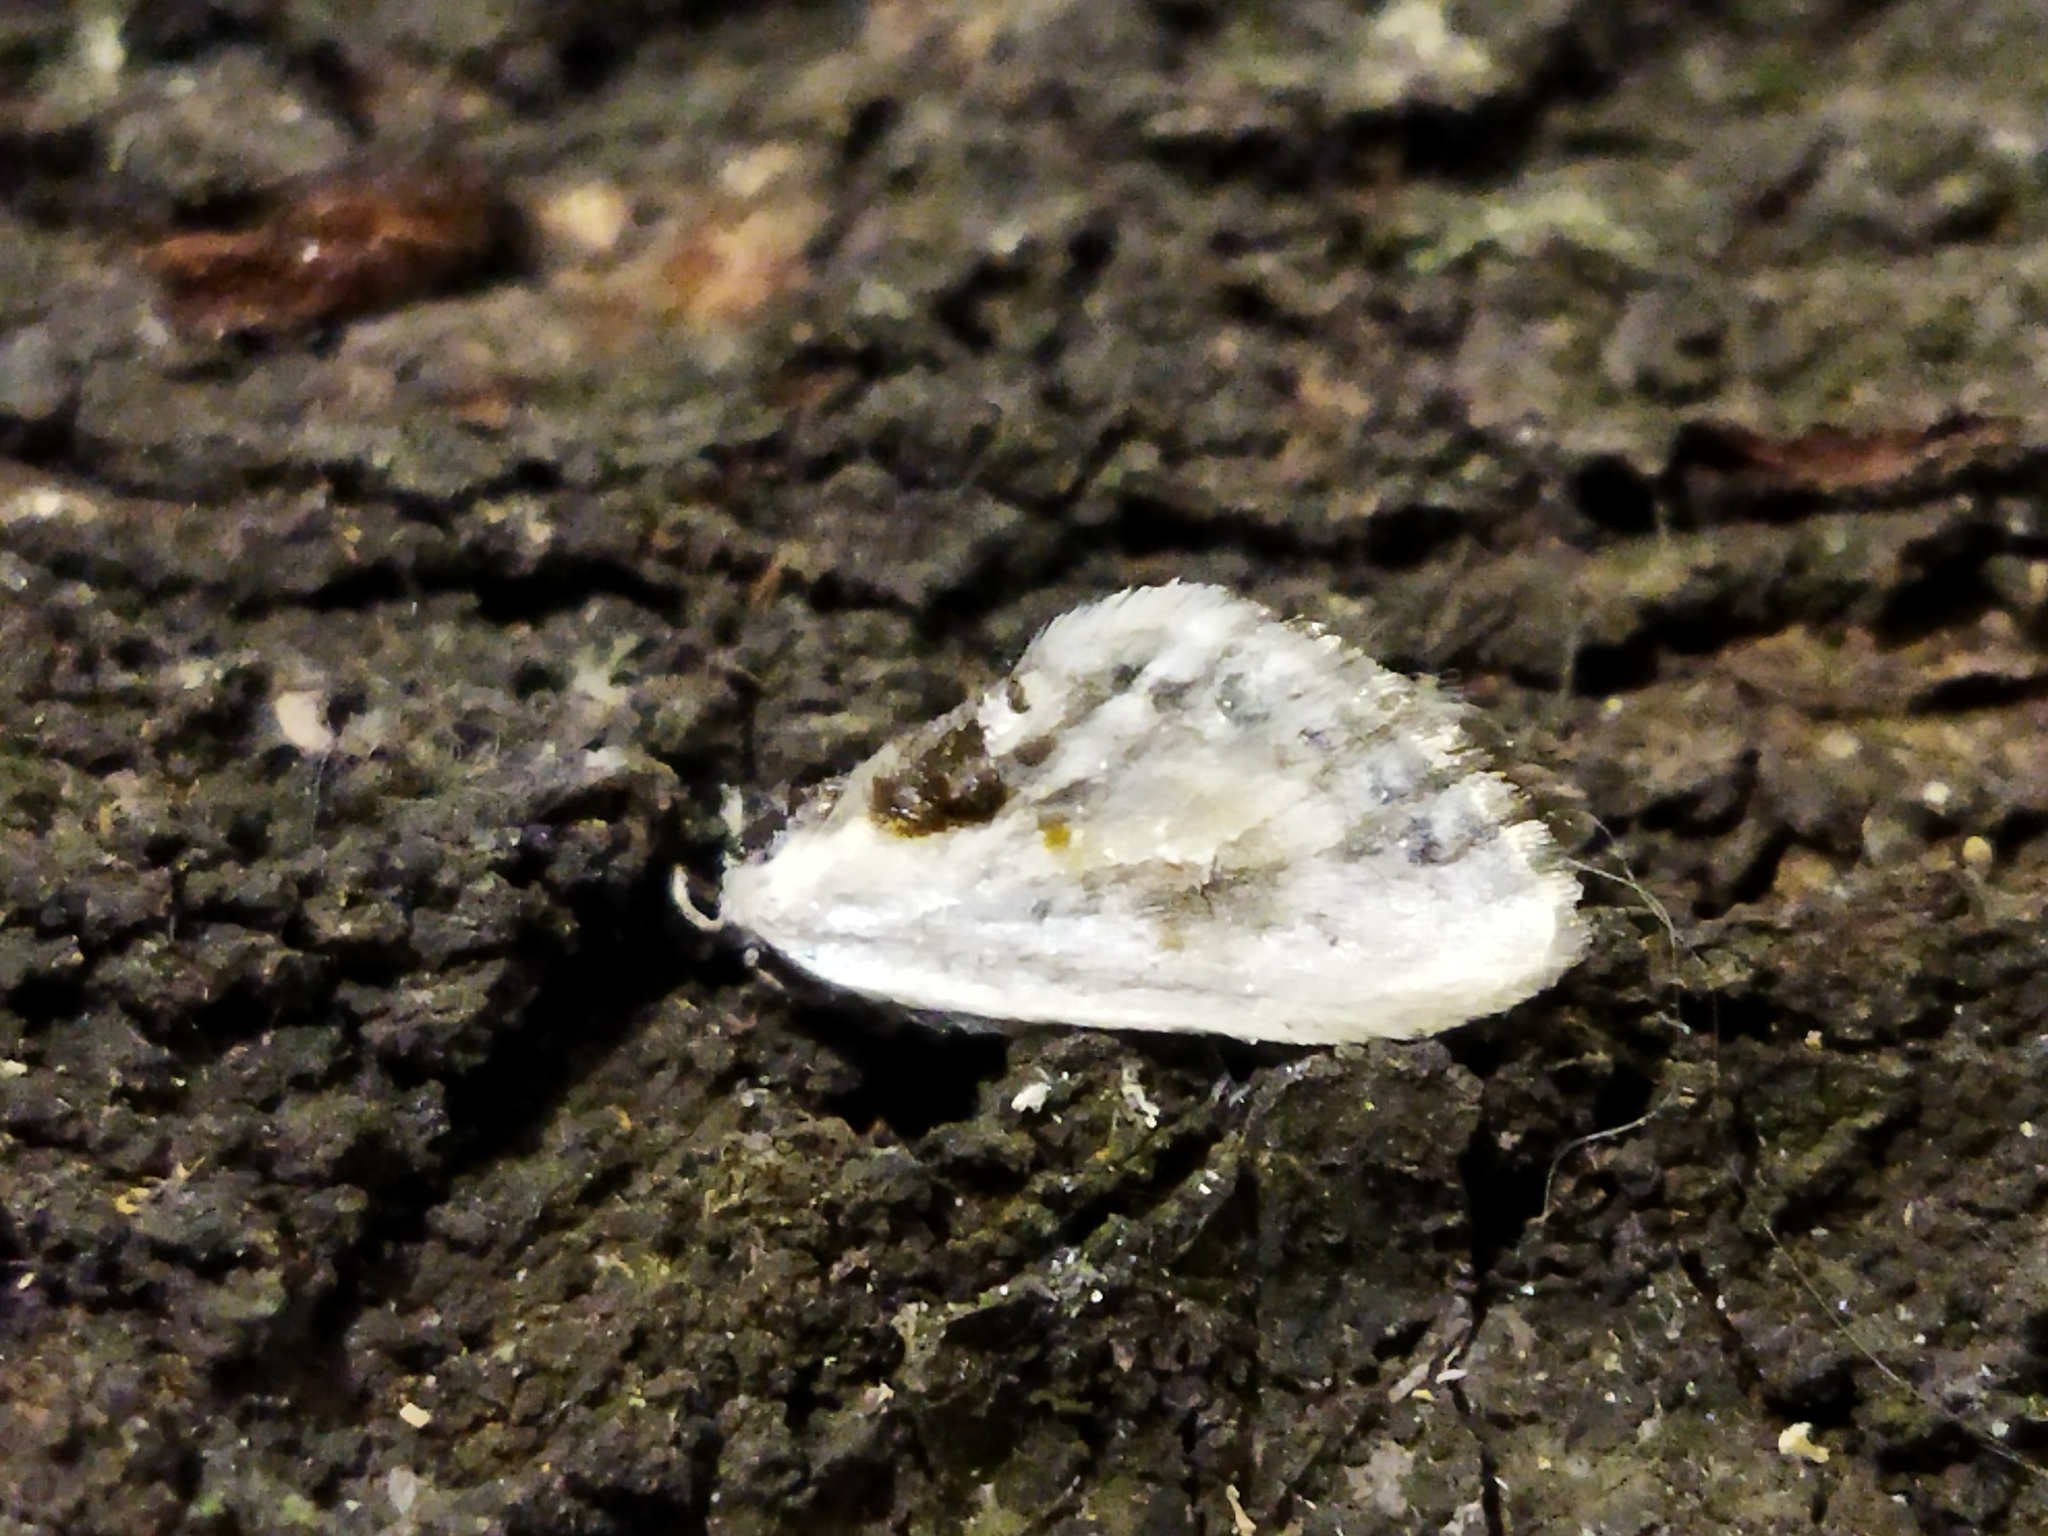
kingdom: Animalia
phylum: Arthropoda
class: Insecta
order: Lepidoptera
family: Drepanidae
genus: Cilix
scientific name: Cilix glaucata
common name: Chinese character
